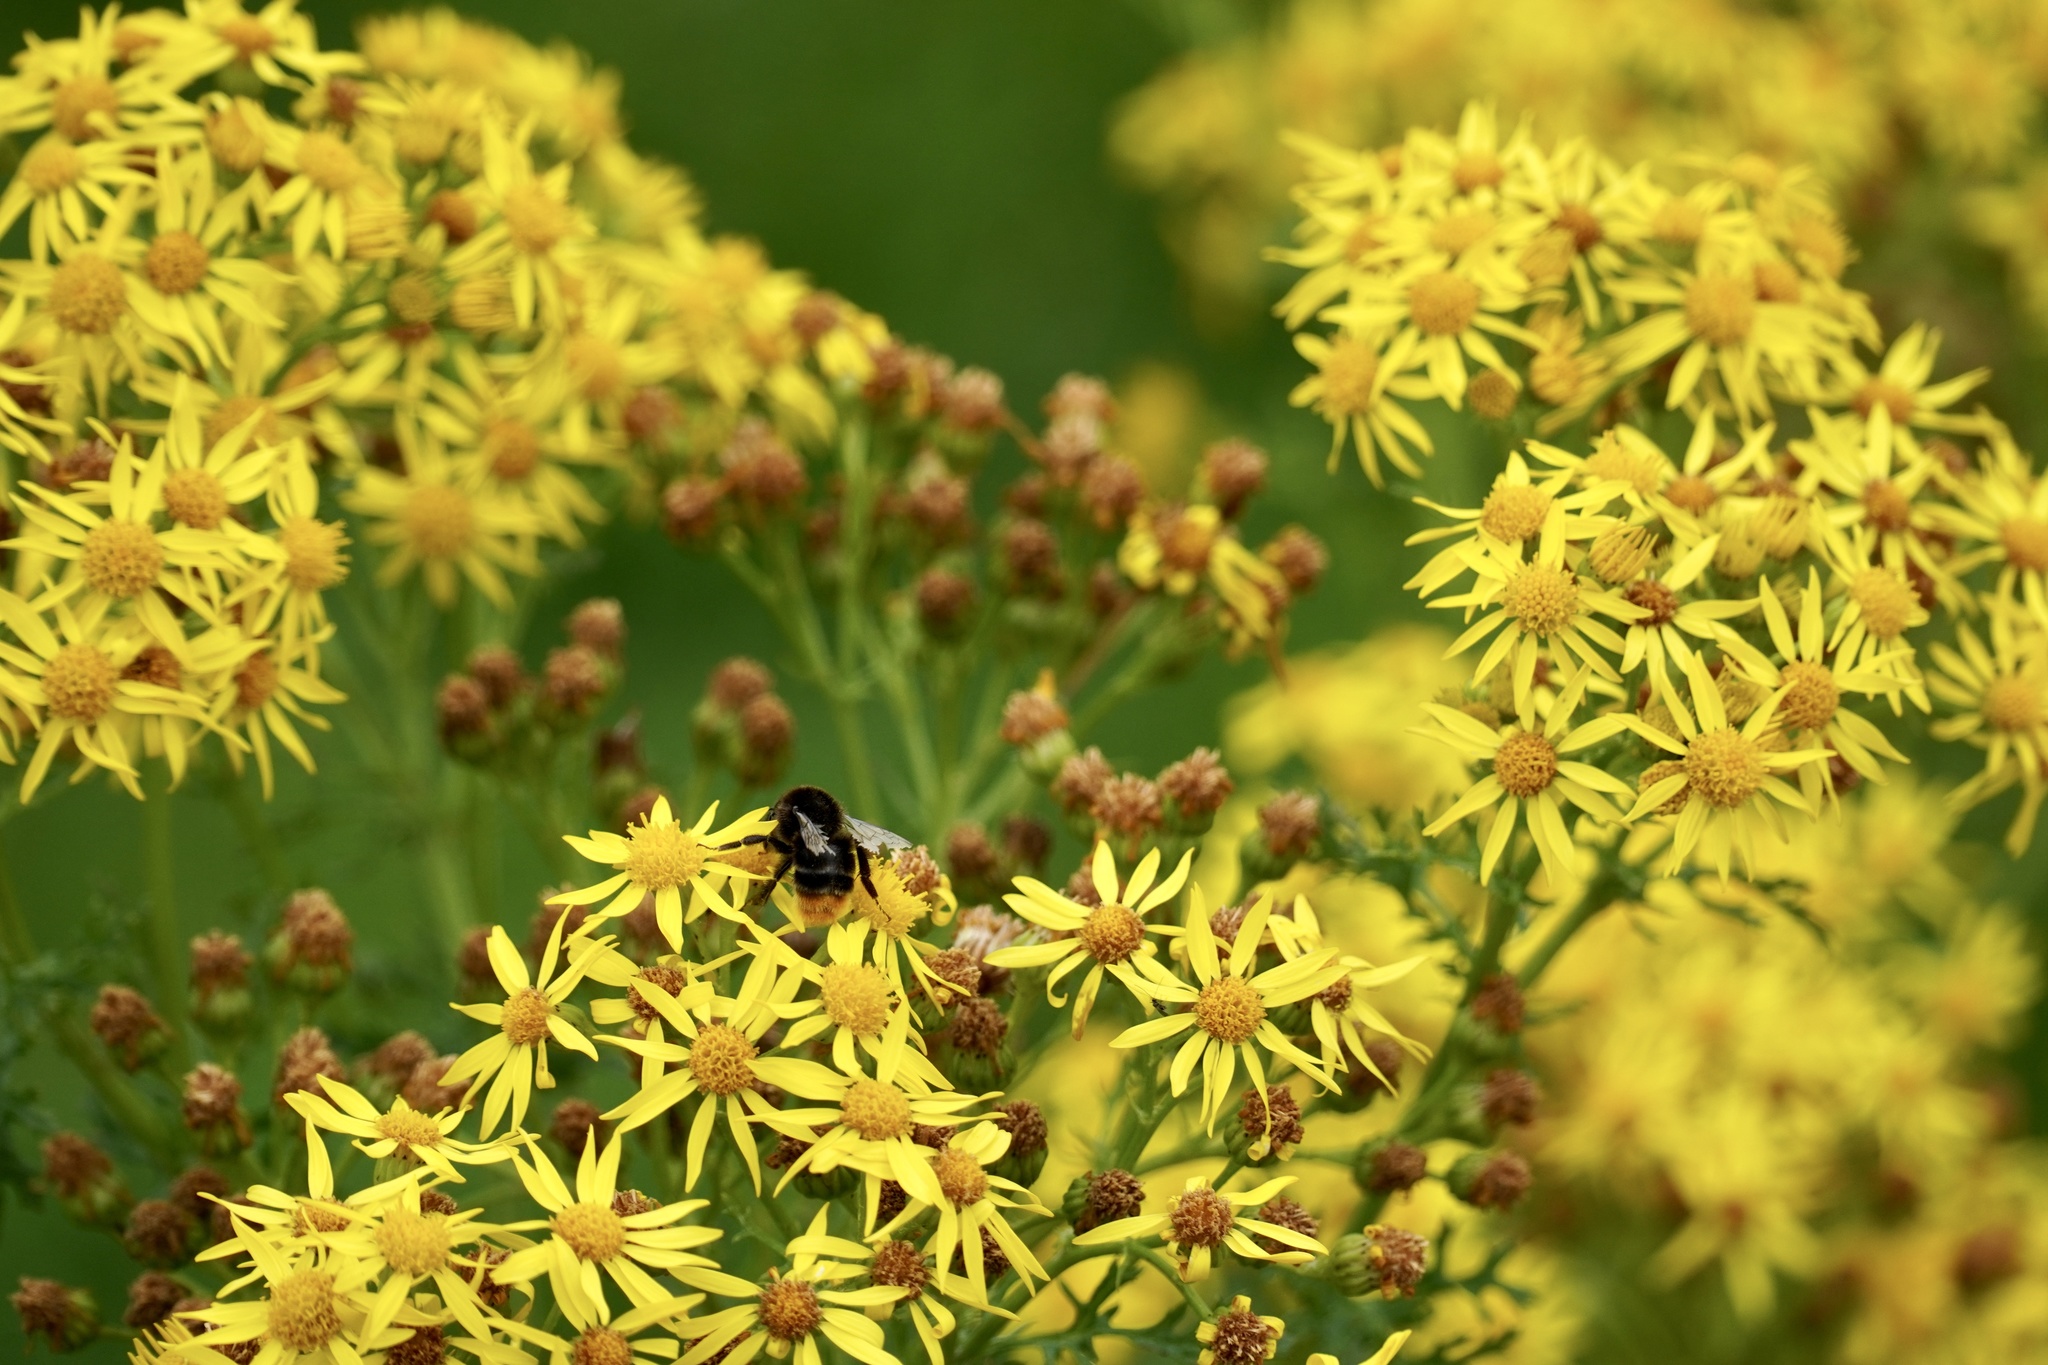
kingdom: Animalia
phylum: Arthropoda
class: Insecta
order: Hymenoptera
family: Apidae
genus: Bombus
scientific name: Bombus lapidarius
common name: Large red-tailed humble-bee
